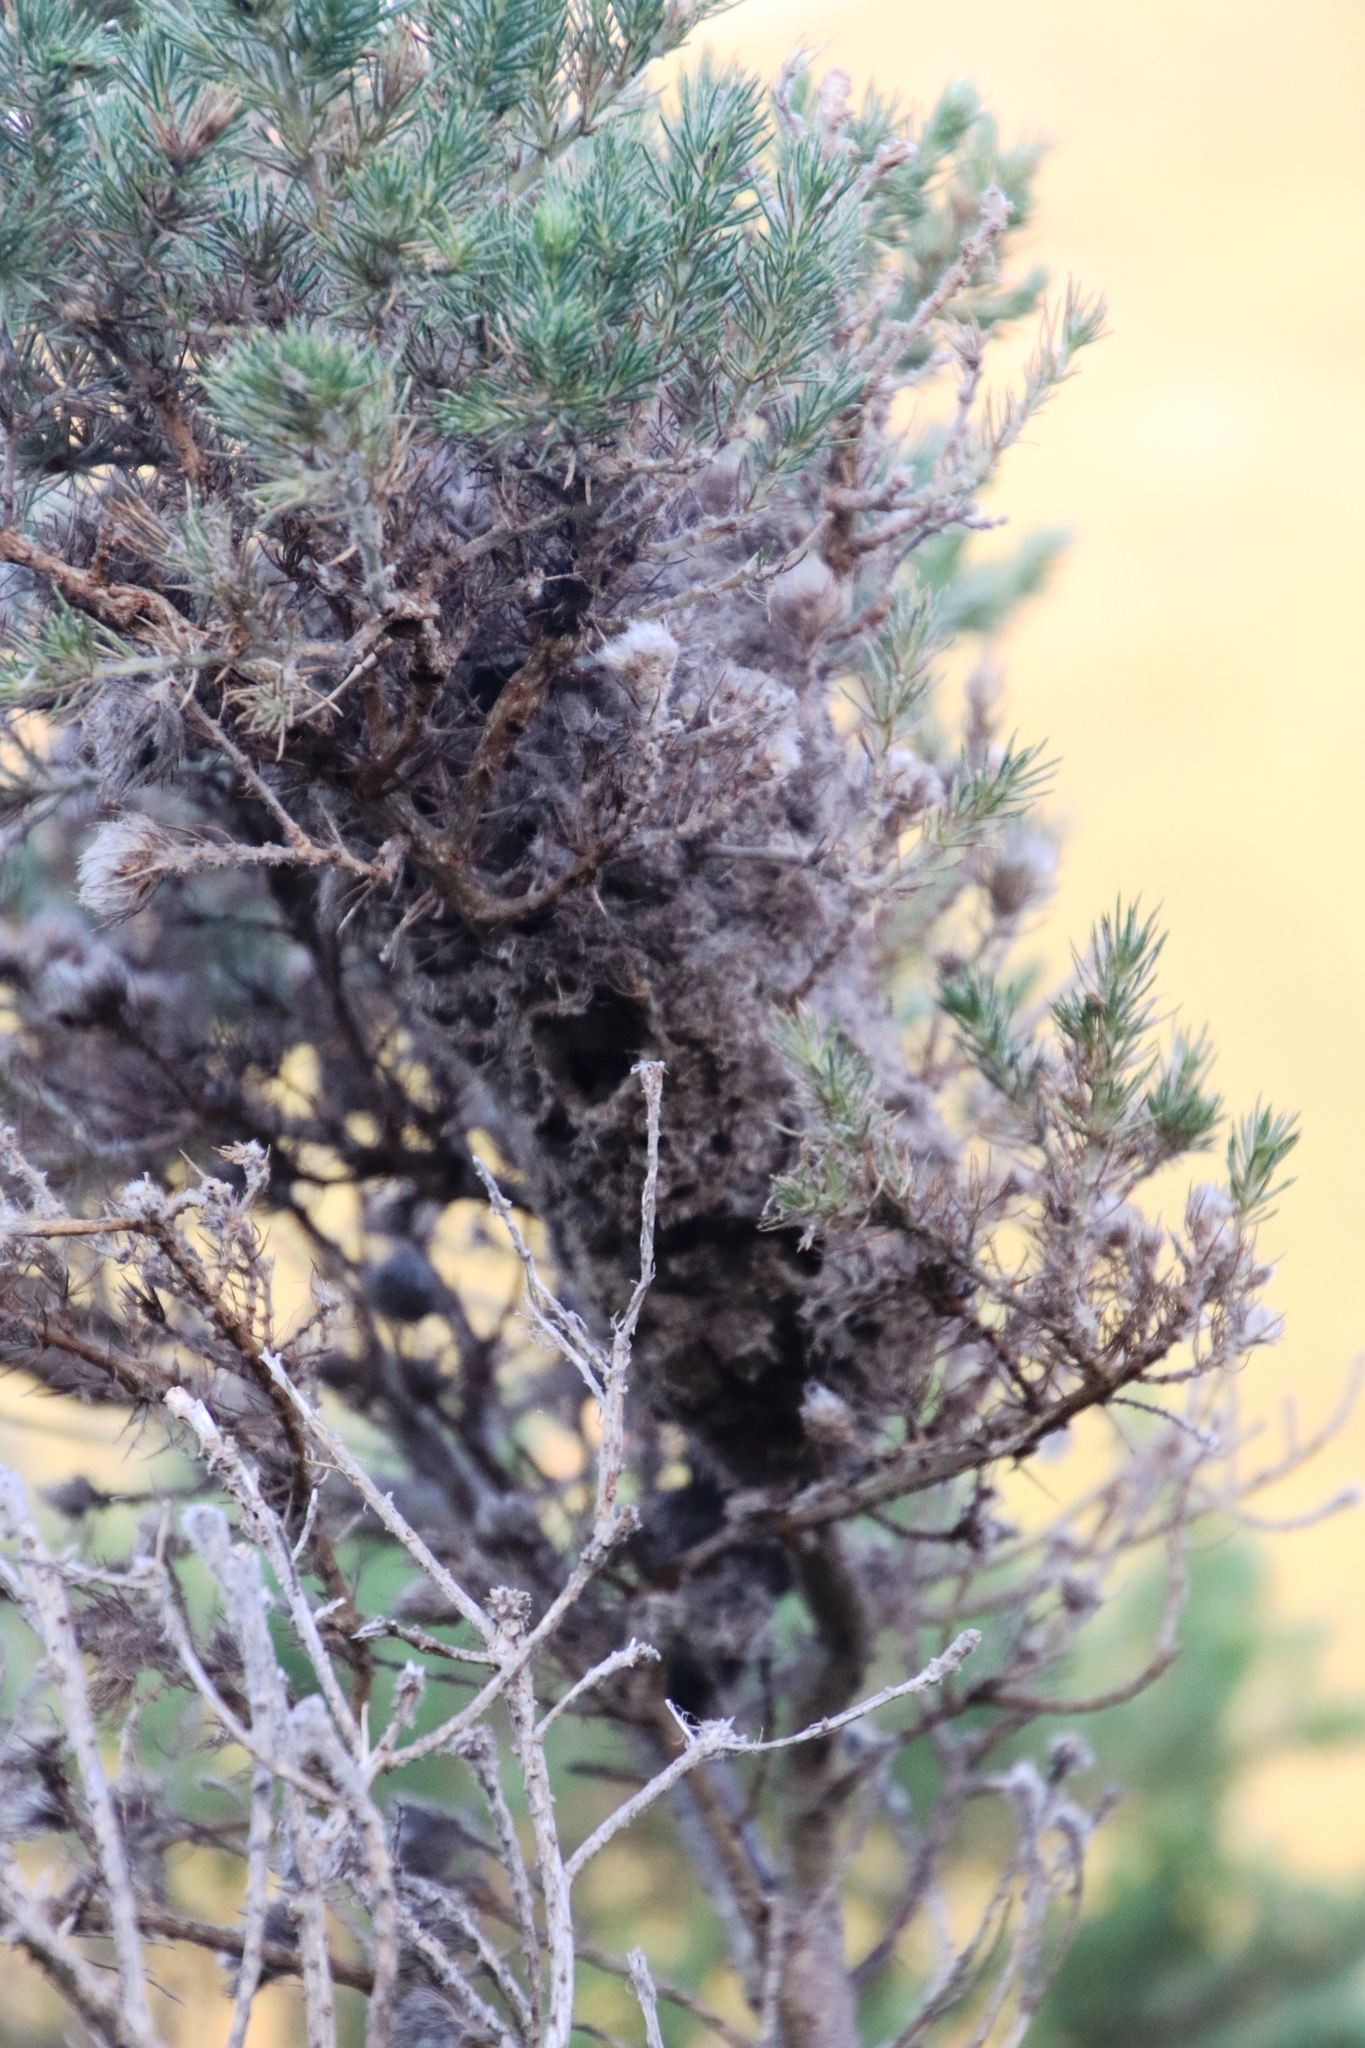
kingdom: Animalia
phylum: Arthropoda
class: Insecta
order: Hymenoptera
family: Formicidae
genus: Crematogaster
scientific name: Crematogaster peringueyi
